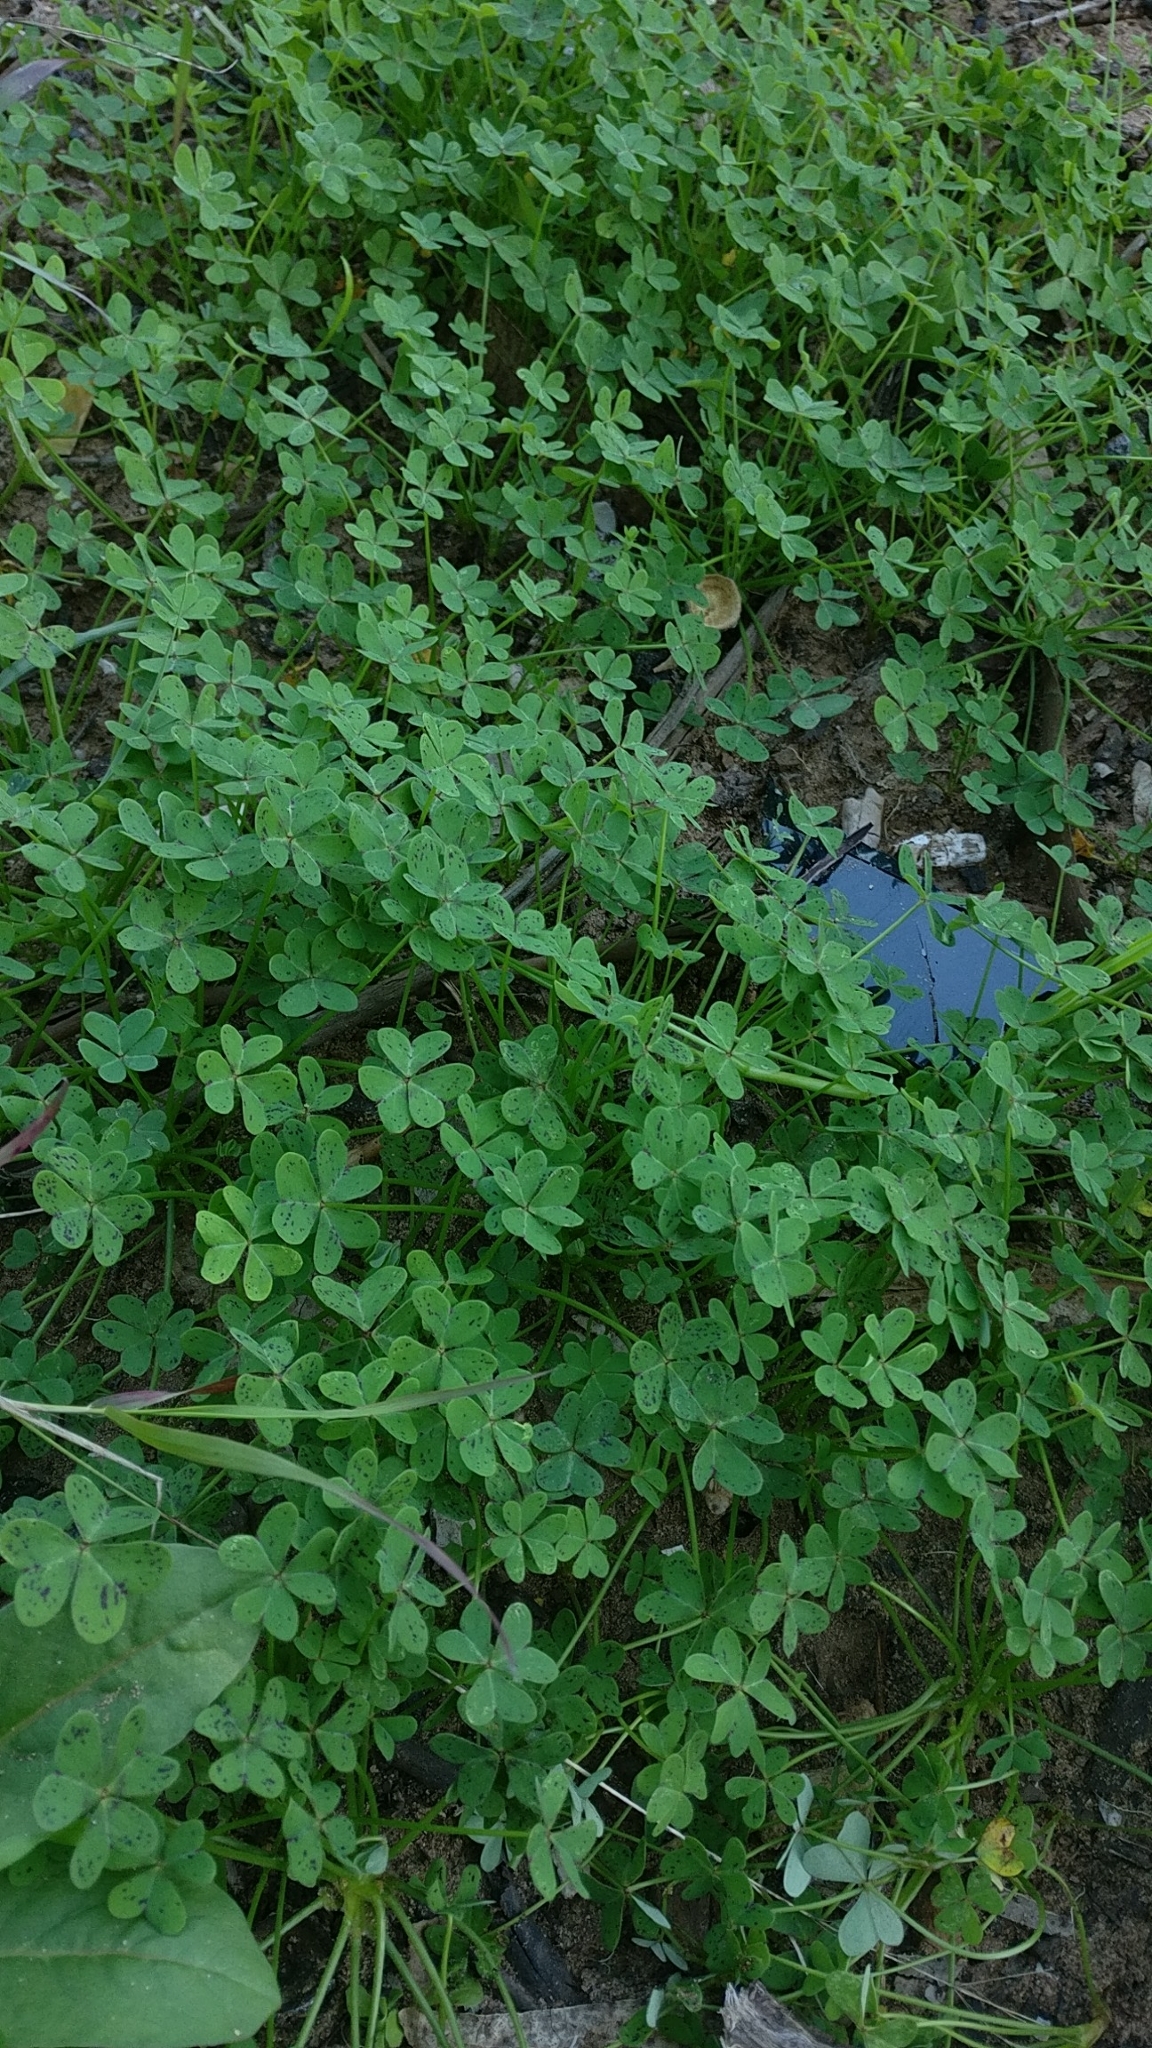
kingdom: Plantae
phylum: Tracheophyta
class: Magnoliopsida
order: Oxalidales
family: Oxalidaceae
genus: Oxalis
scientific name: Oxalis pes-caprae
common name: Bermuda-buttercup
